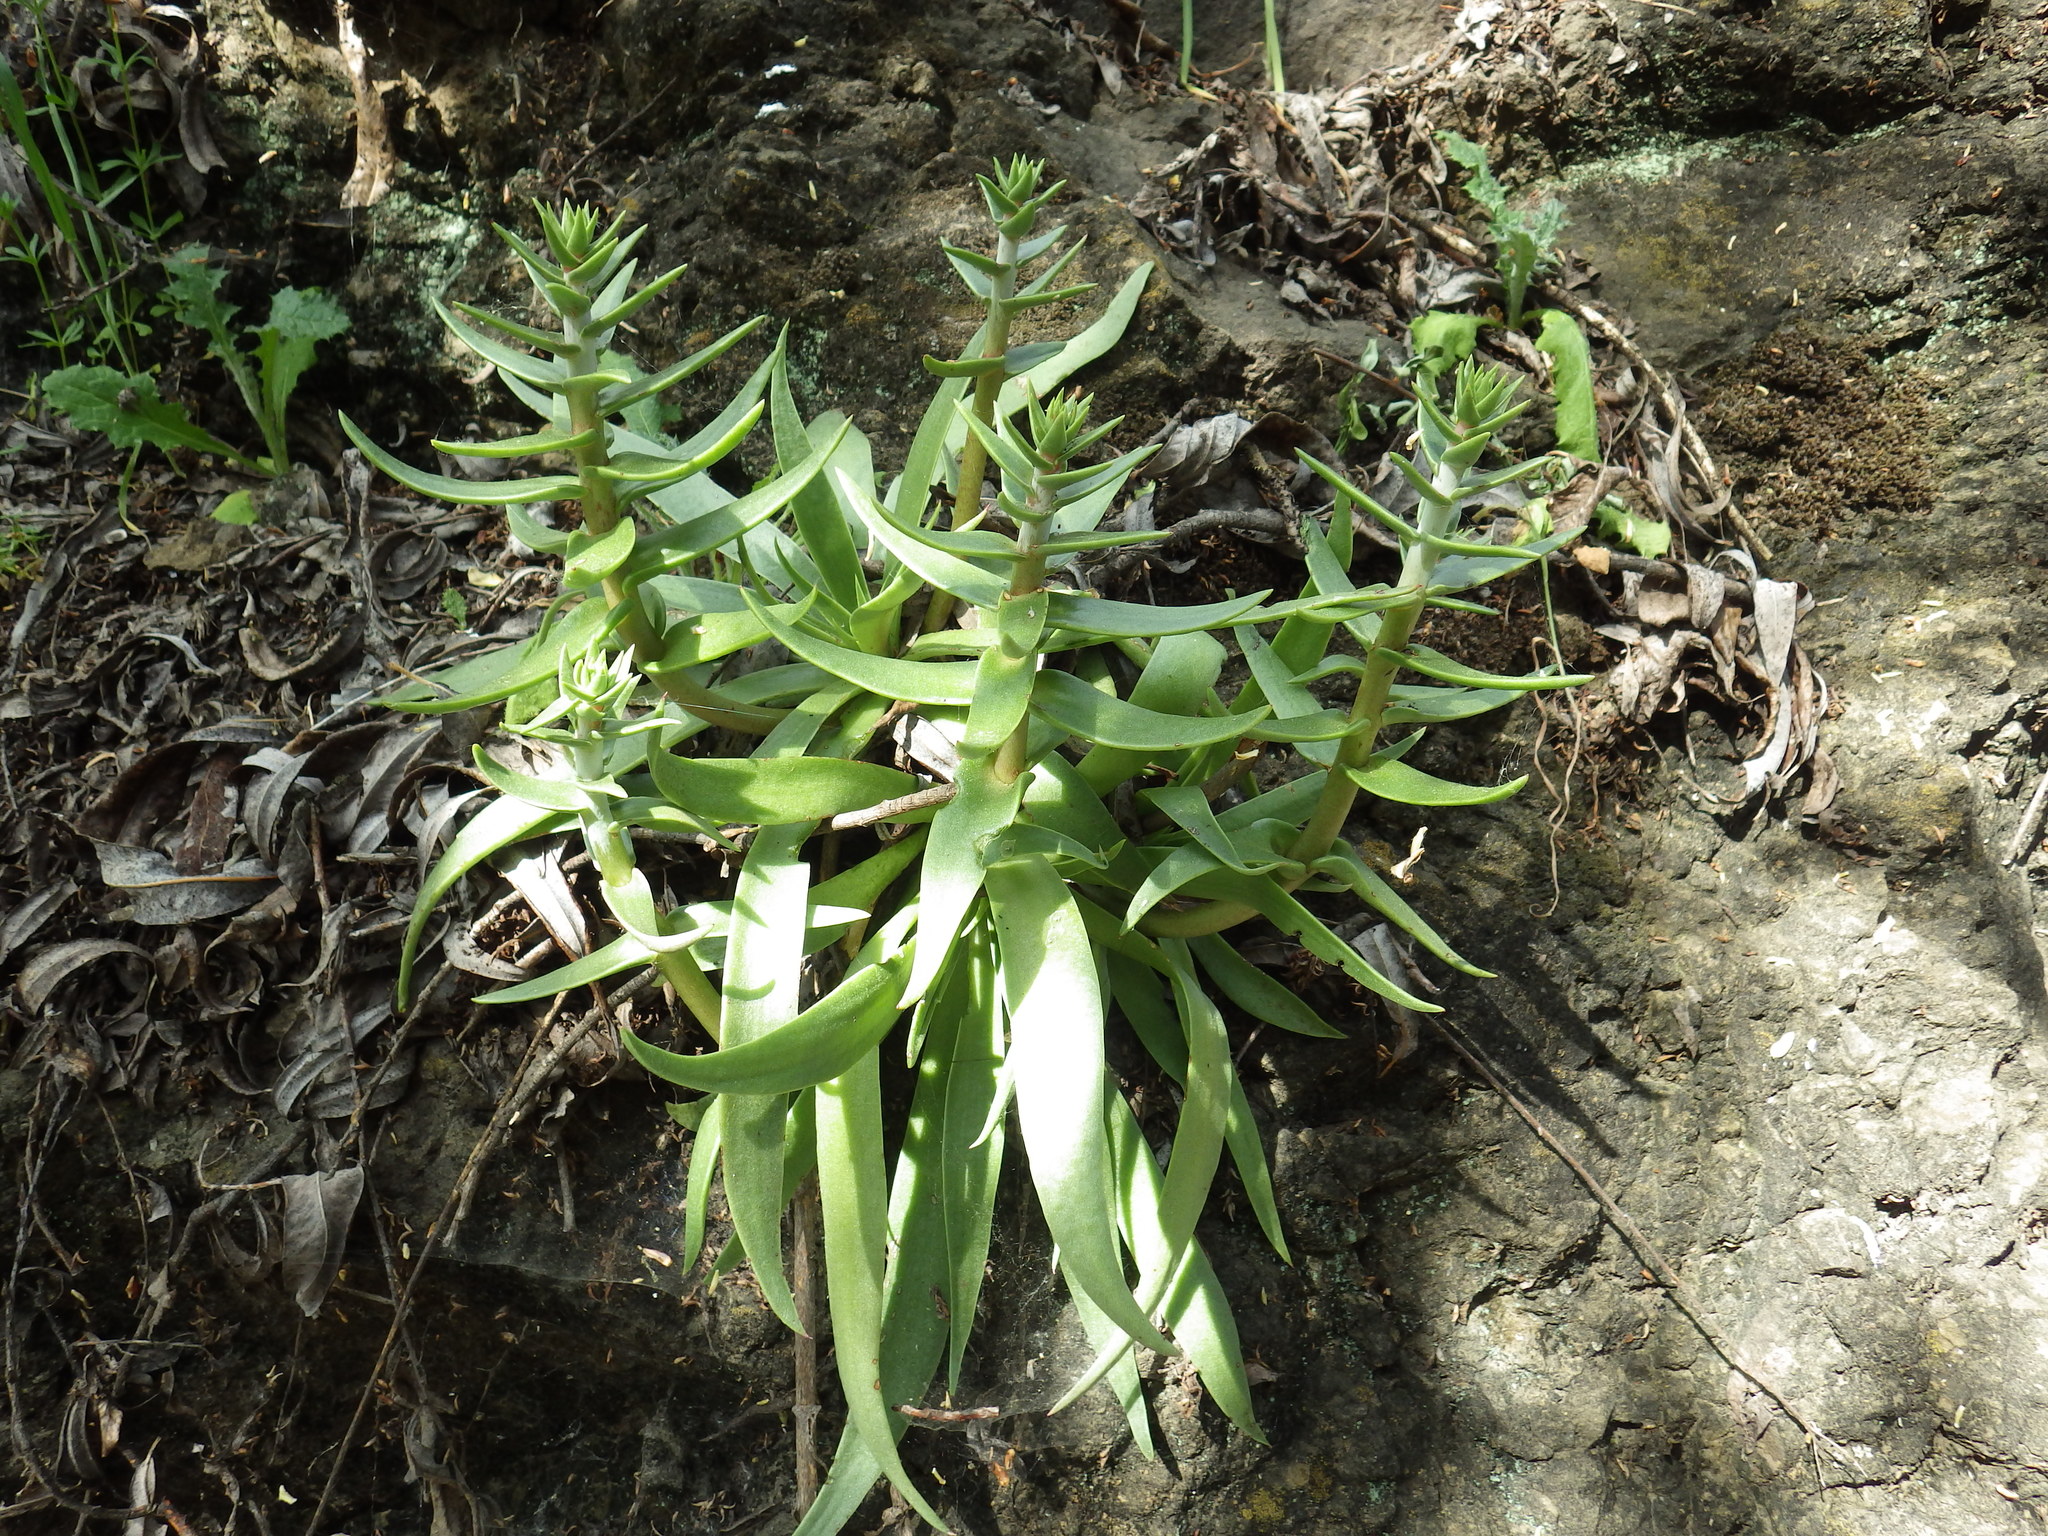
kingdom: Plantae
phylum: Tracheophyta
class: Magnoliopsida
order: Saxifragales
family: Crassulaceae
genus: Dudleya
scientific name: Dudleya lanceolata
